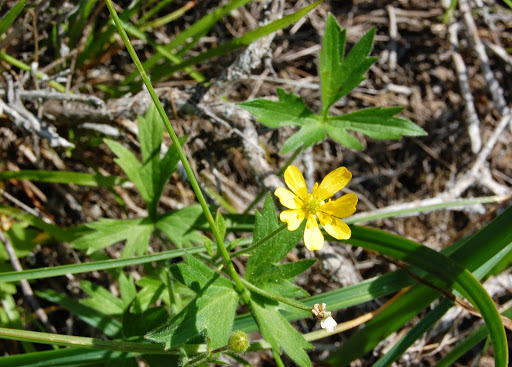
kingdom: Plantae
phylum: Tracheophyta
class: Magnoliopsida
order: Ranunculales
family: Ranunculaceae
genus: Ranunculus
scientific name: Ranunculus californicus
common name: California buttercup
